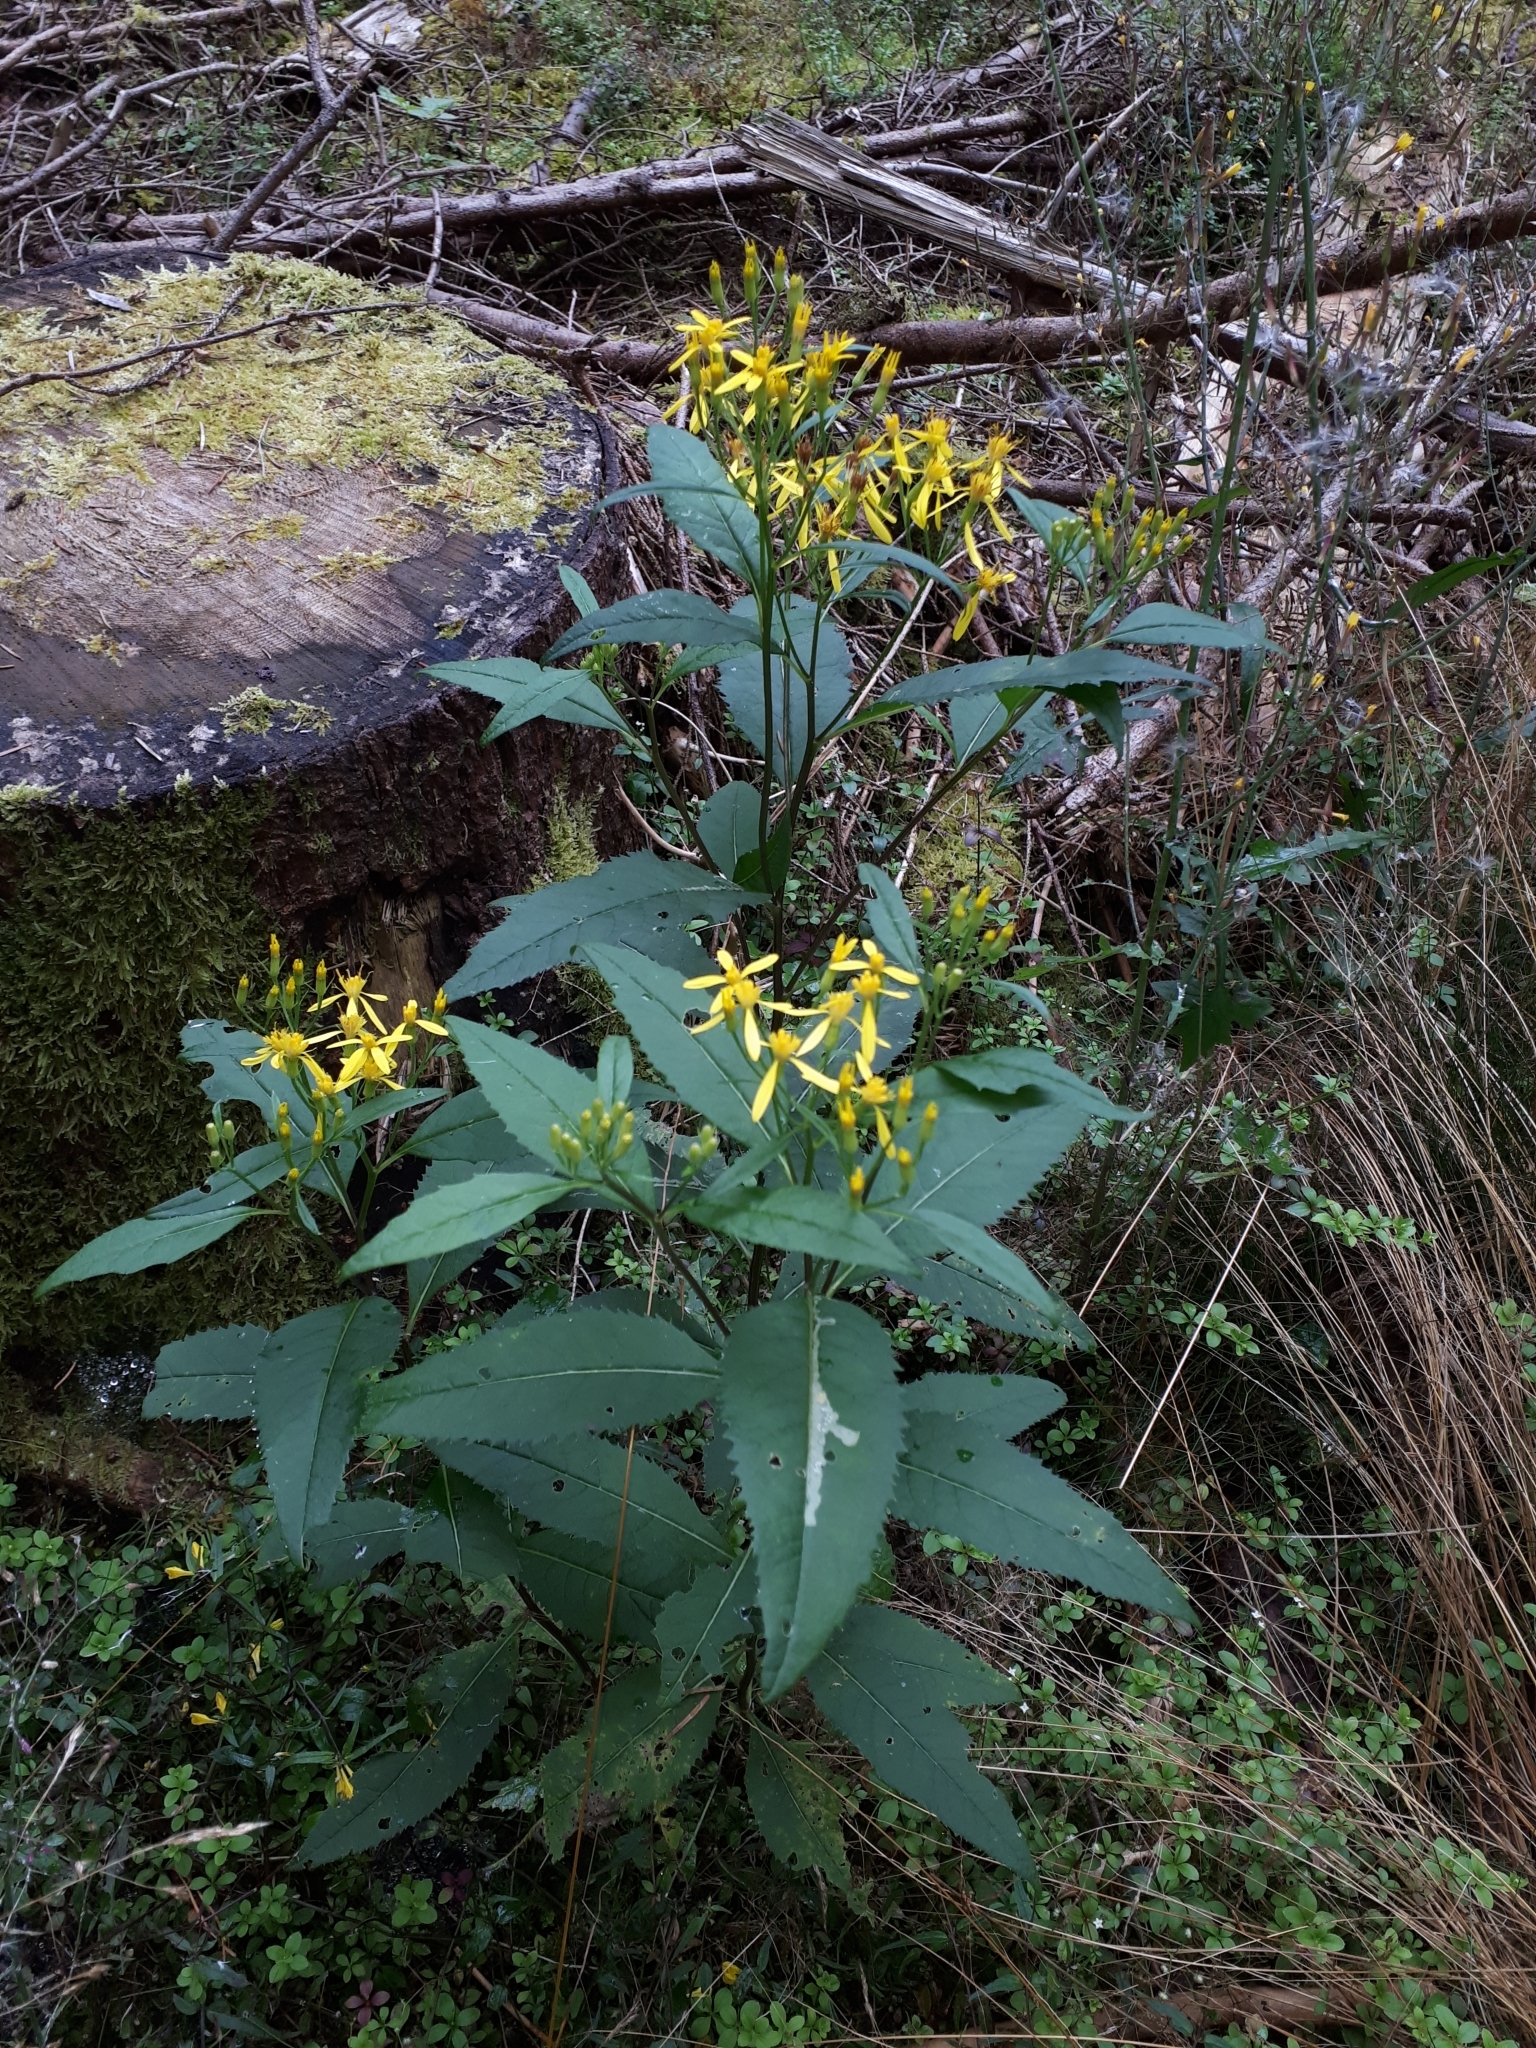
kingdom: Plantae
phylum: Tracheophyta
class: Magnoliopsida
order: Asterales
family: Asteraceae
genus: Senecio
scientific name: Senecio ovatus
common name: Wood ragwort
